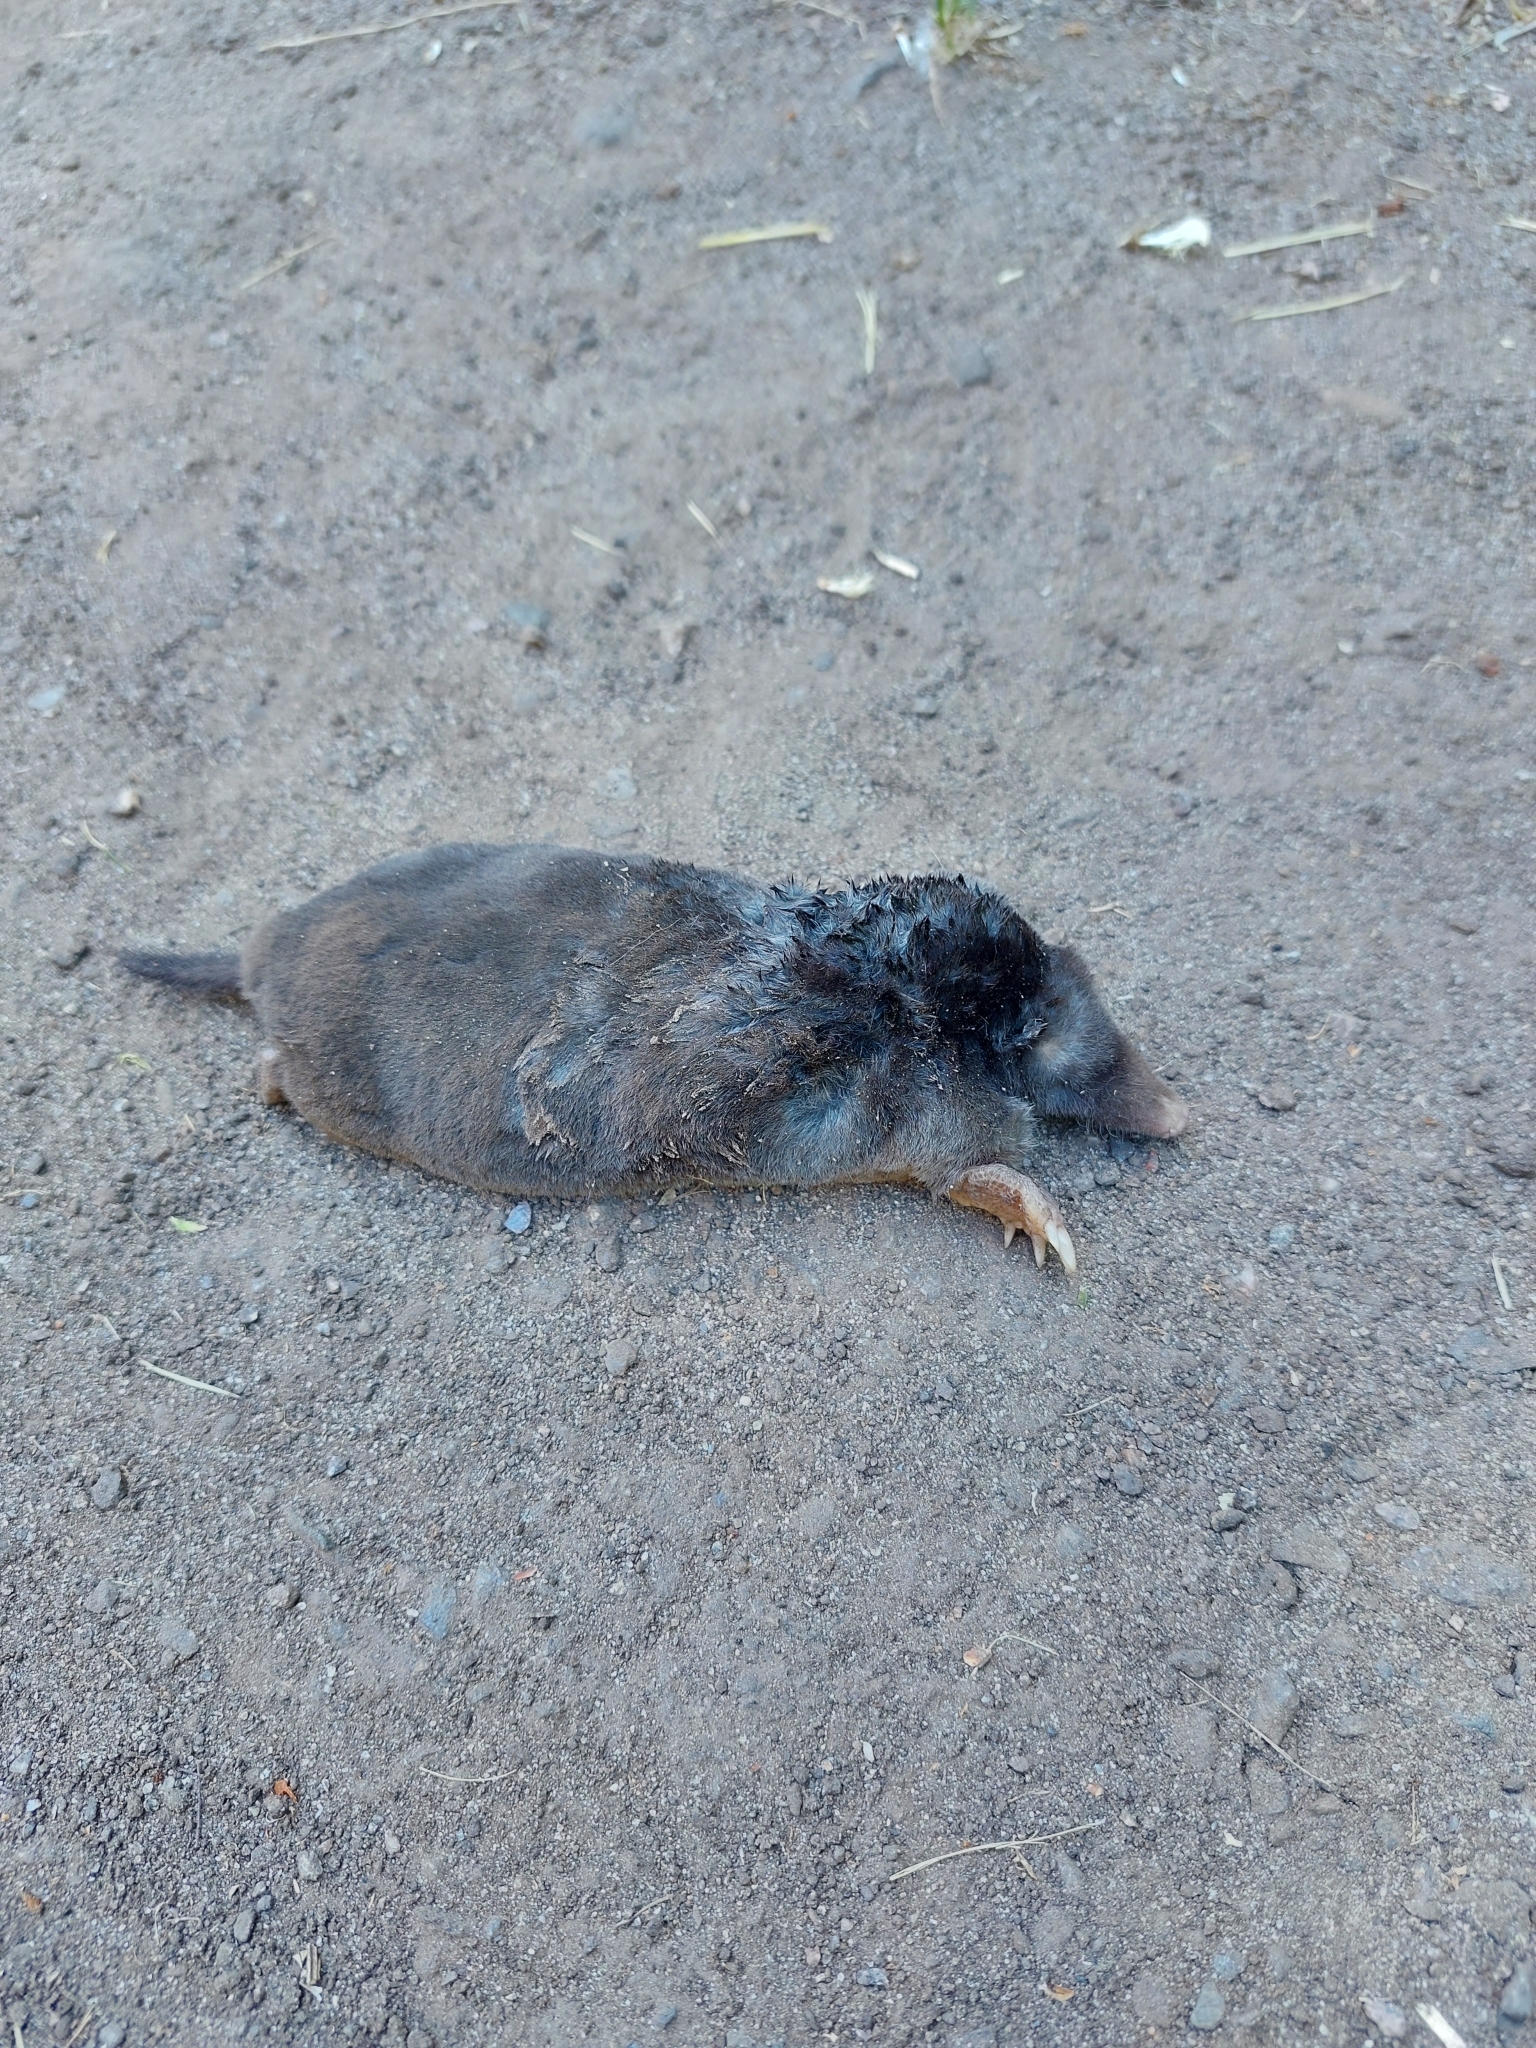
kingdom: Animalia
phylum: Chordata
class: Mammalia
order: Soricomorpha
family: Talpidae
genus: Talpa
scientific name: Talpa europaea
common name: European mole
